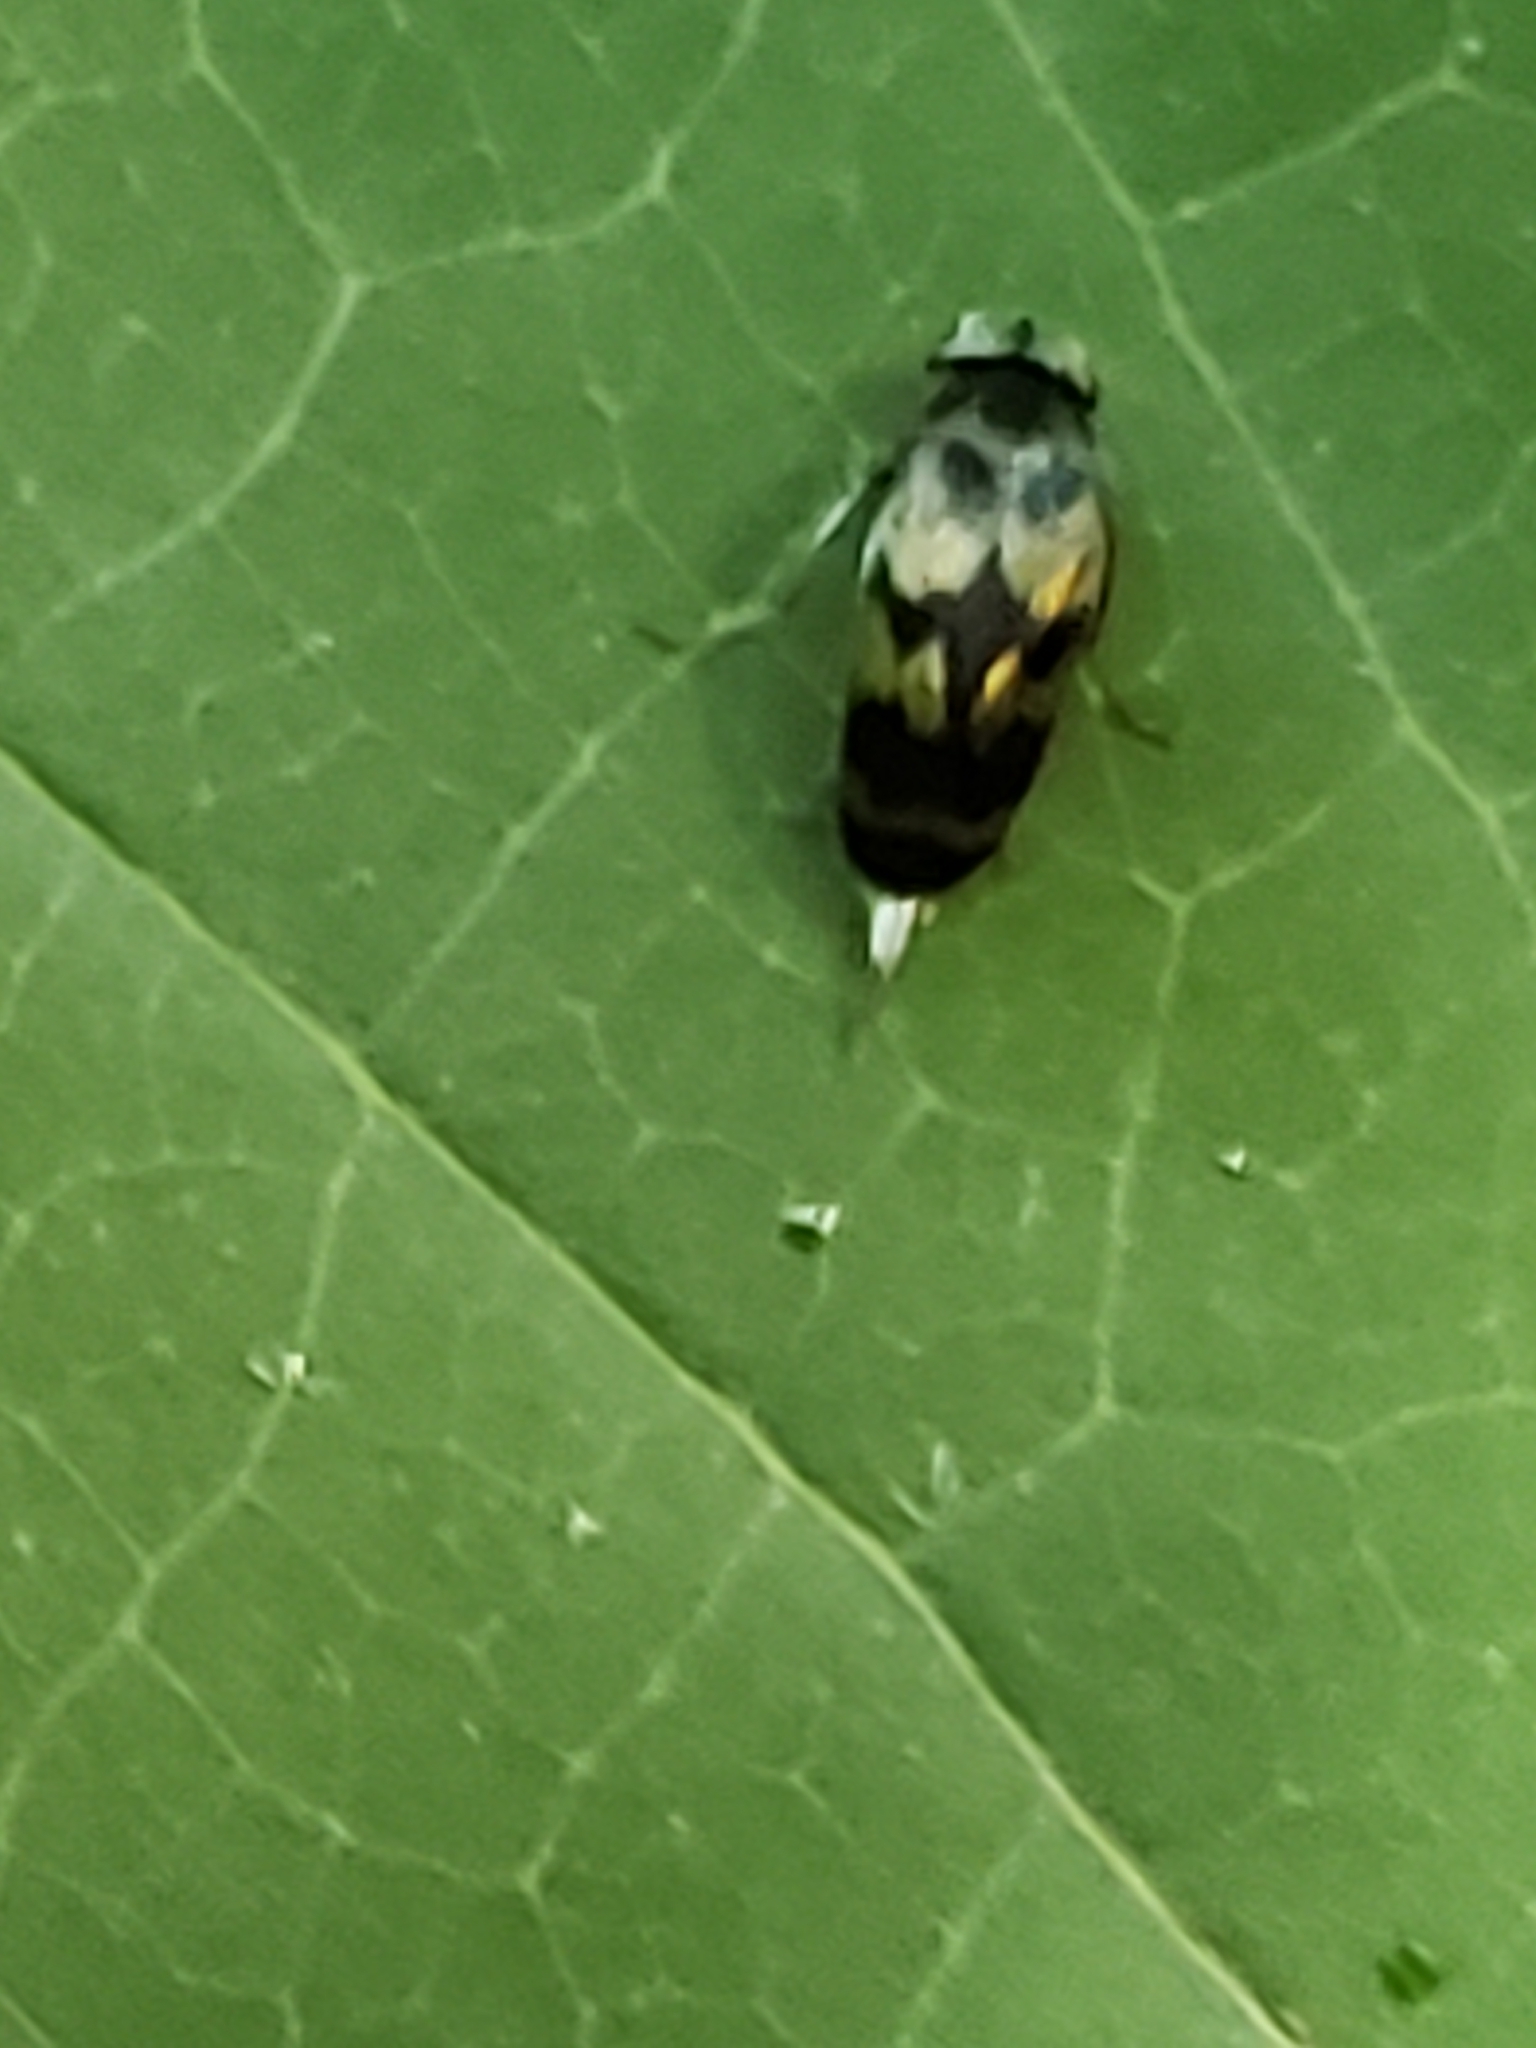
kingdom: Animalia
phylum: Arthropoda
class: Insecta
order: Coleoptera
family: Mordellidae
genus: Paramordellaria
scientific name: Paramordellaria triloba
